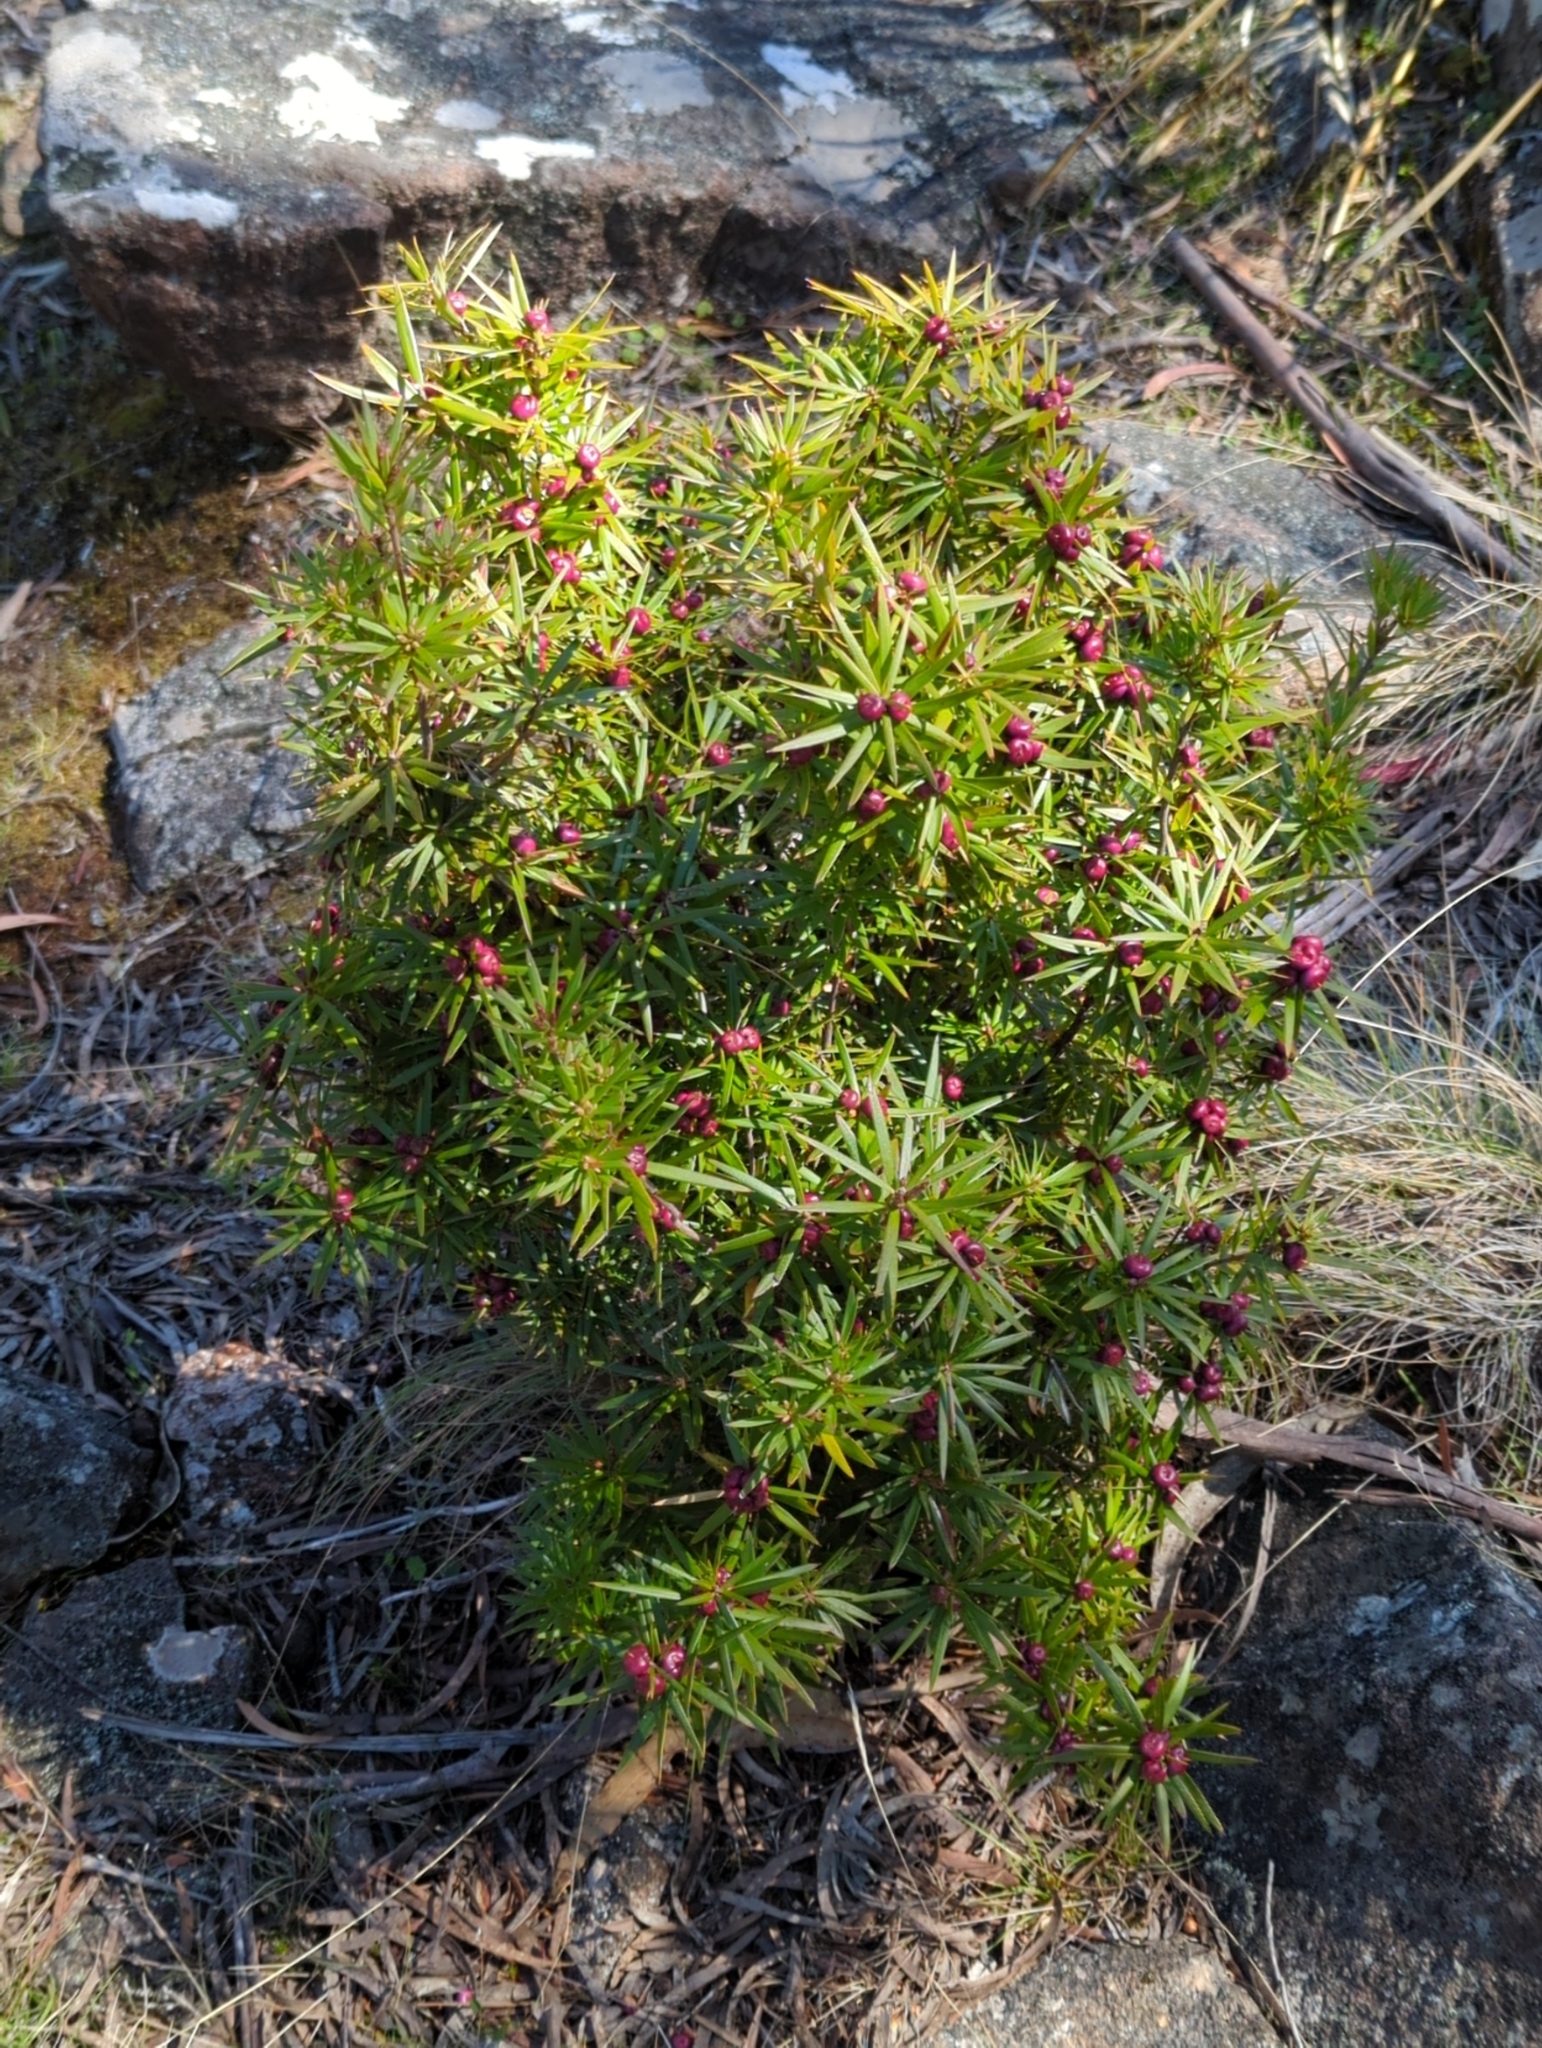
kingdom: Plantae
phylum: Tracheophyta
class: Magnoliopsida
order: Ericales
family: Ericaceae
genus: Cyathodes
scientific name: Cyathodes glauca
